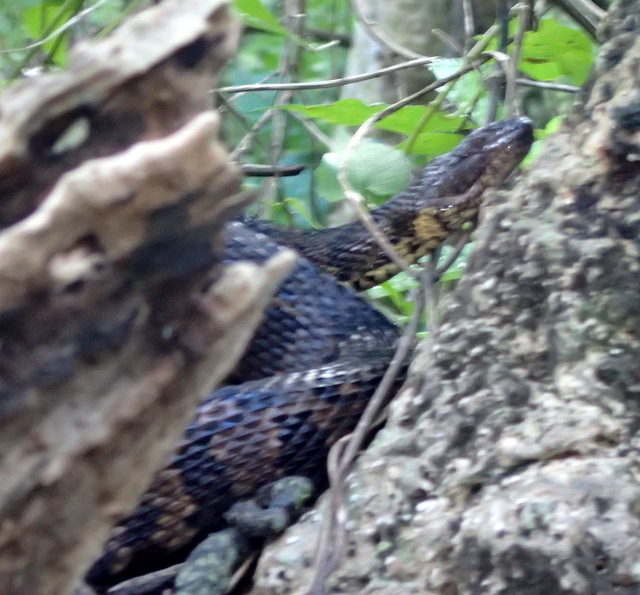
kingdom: Animalia
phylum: Chordata
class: Squamata
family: Colubridae
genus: Nerodia
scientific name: Nerodia taxispilota
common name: Brown water snake
